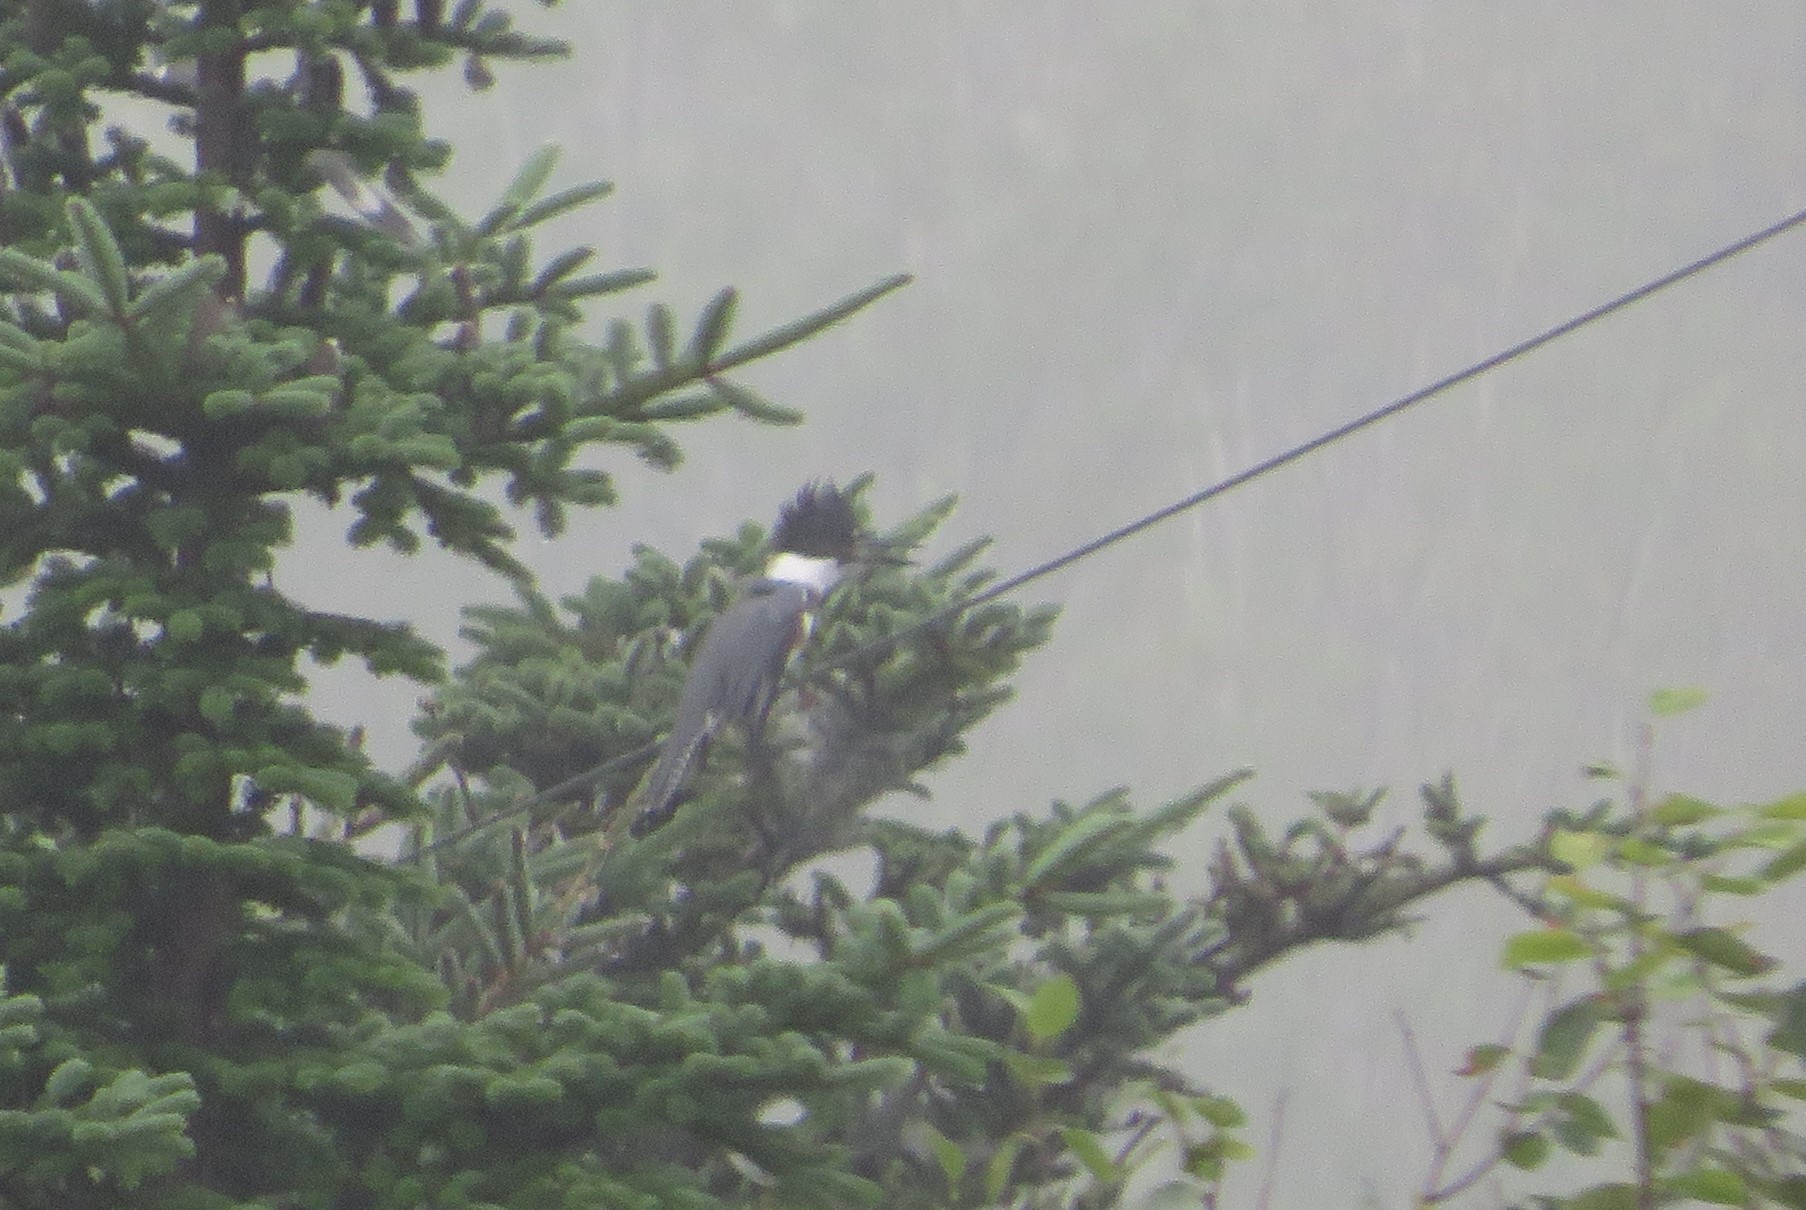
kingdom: Animalia
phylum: Chordata
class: Aves
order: Coraciiformes
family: Alcedinidae
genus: Megaceryle
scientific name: Megaceryle alcyon
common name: Belted kingfisher
